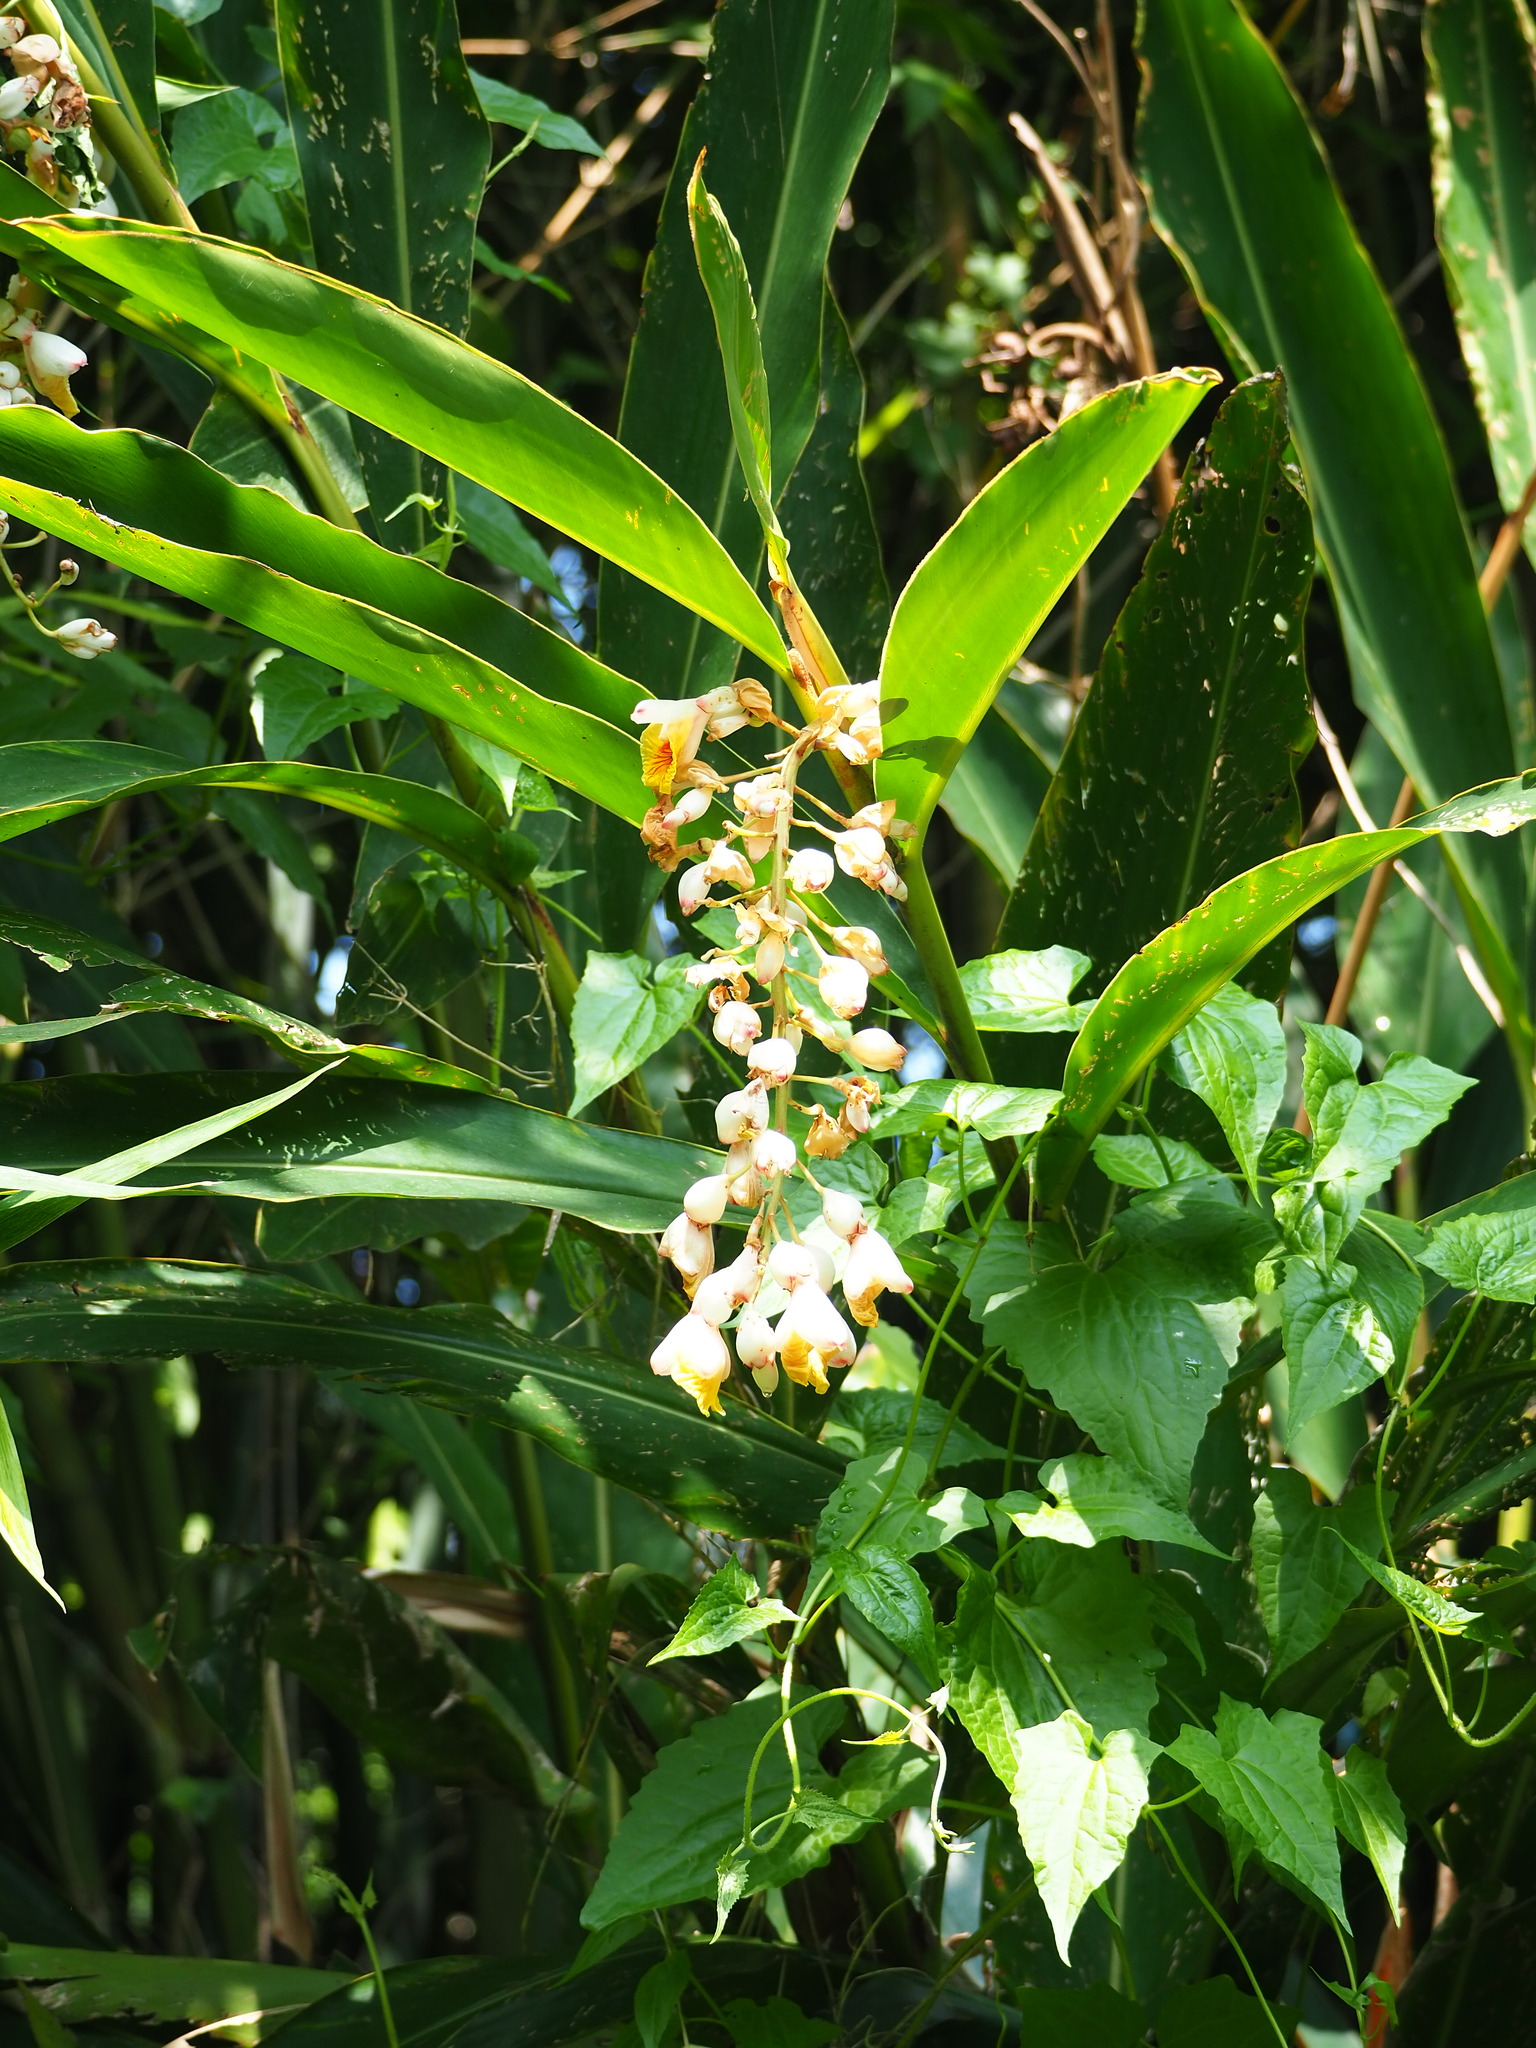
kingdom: Plantae
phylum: Tracheophyta
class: Liliopsida
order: Zingiberales
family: Zingiberaceae
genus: Alpinia
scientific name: Alpinia zerumbet
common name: Shellplant
